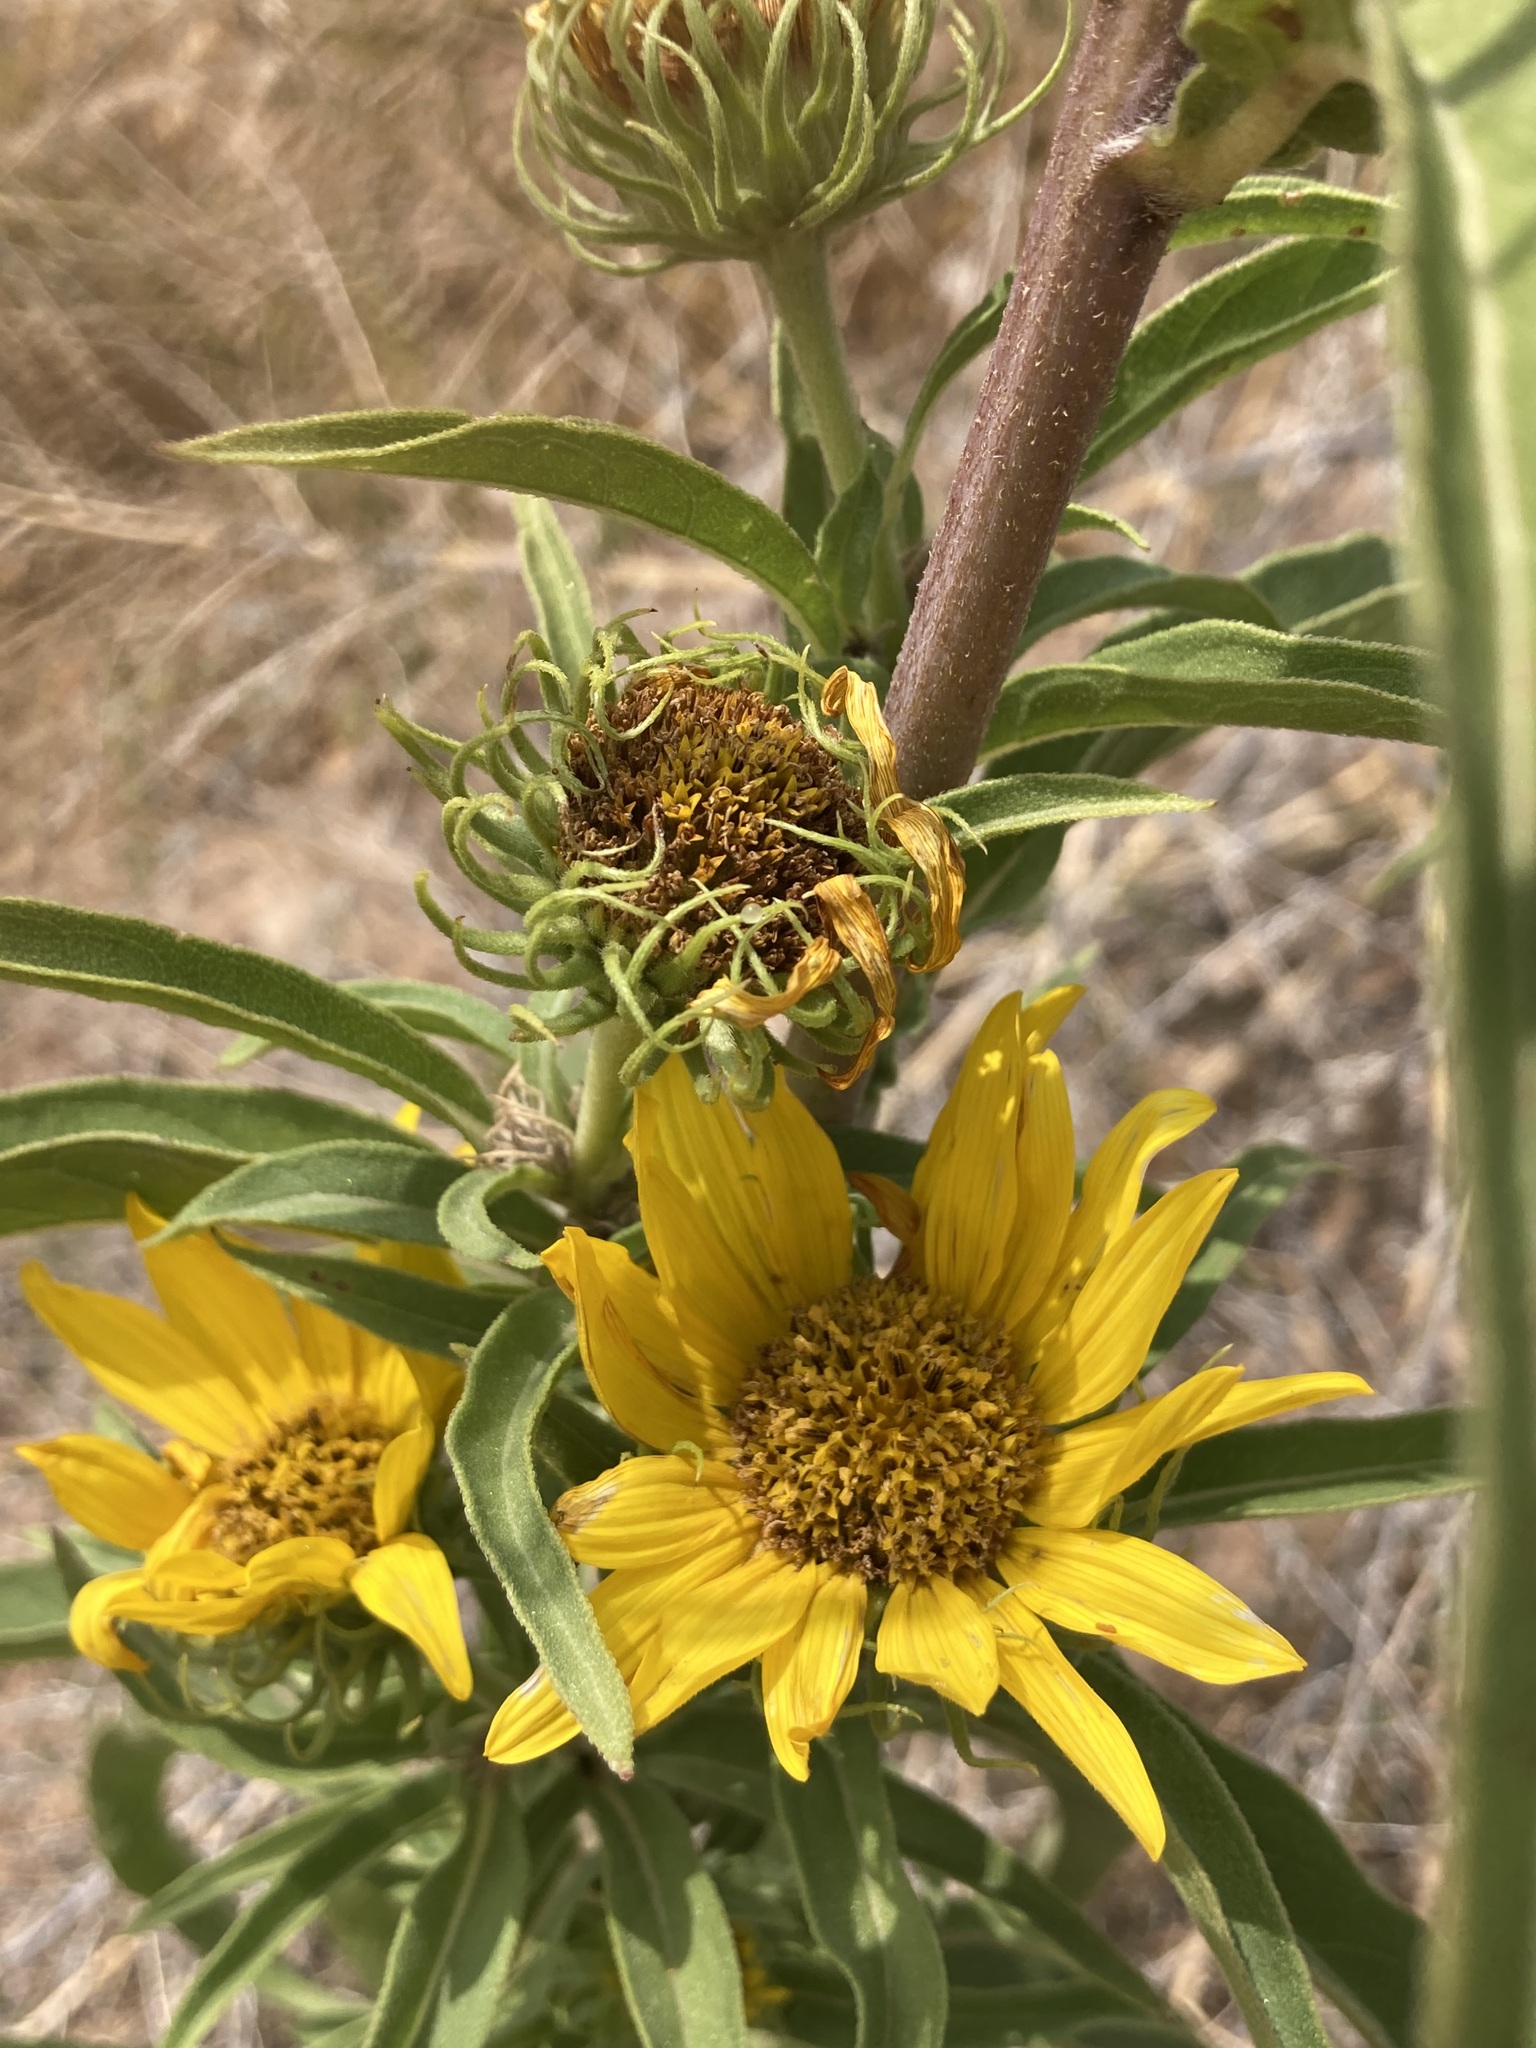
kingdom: Plantae
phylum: Tracheophyta
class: Magnoliopsida
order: Asterales
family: Asteraceae
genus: Helianthus
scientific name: Helianthus maximiliani
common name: Maximilian's sunflower
